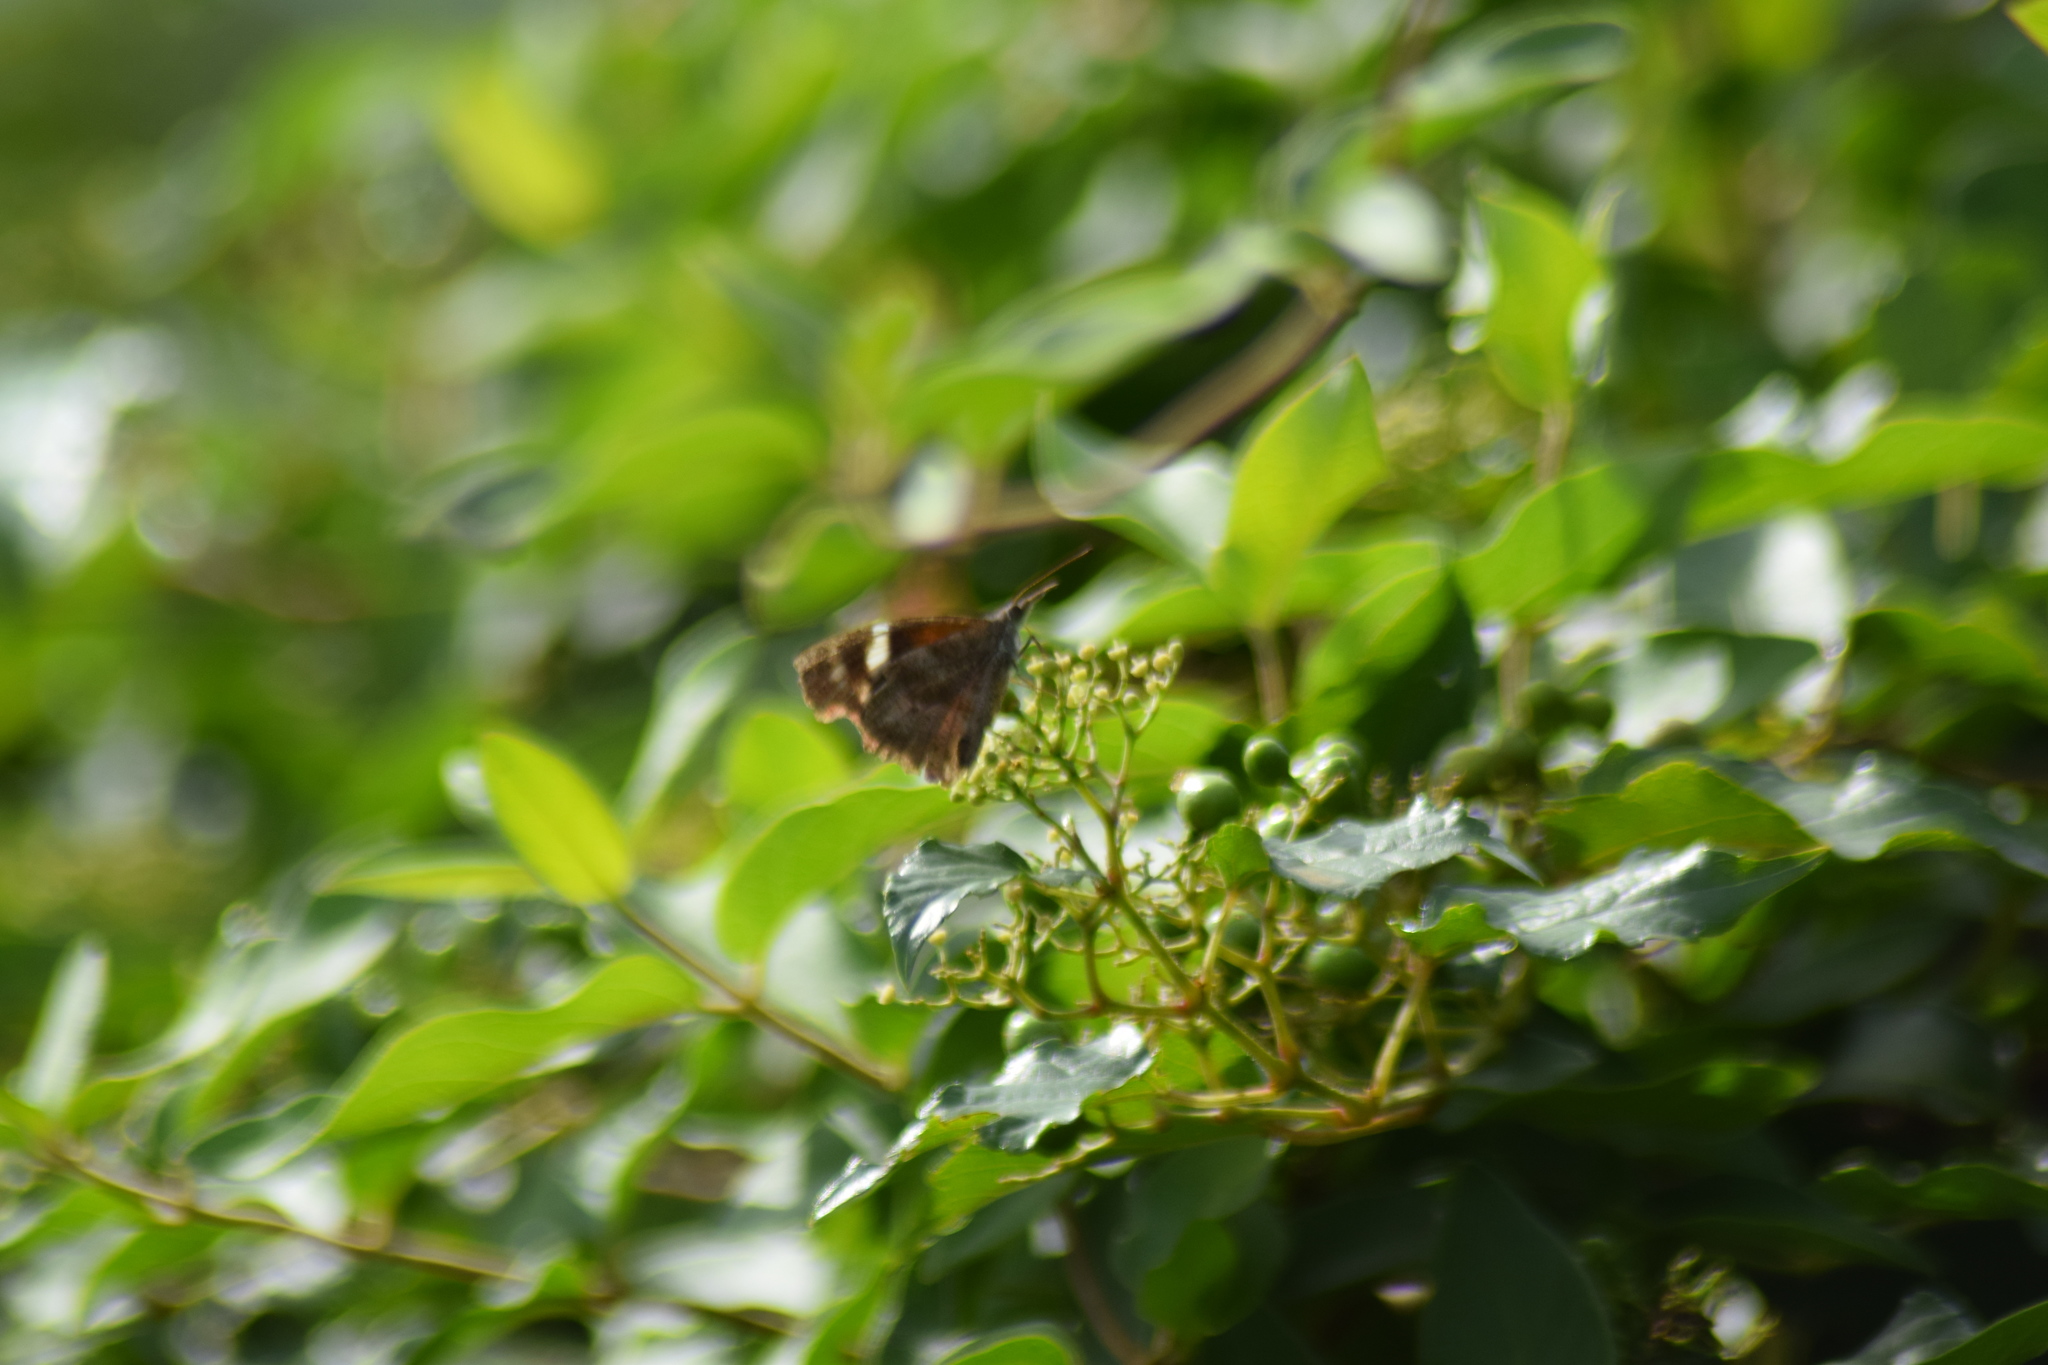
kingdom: Animalia
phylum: Arthropoda
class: Insecta
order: Lepidoptera
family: Nymphalidae
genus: Libytheana
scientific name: Libytheana carinenta
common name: American snout
